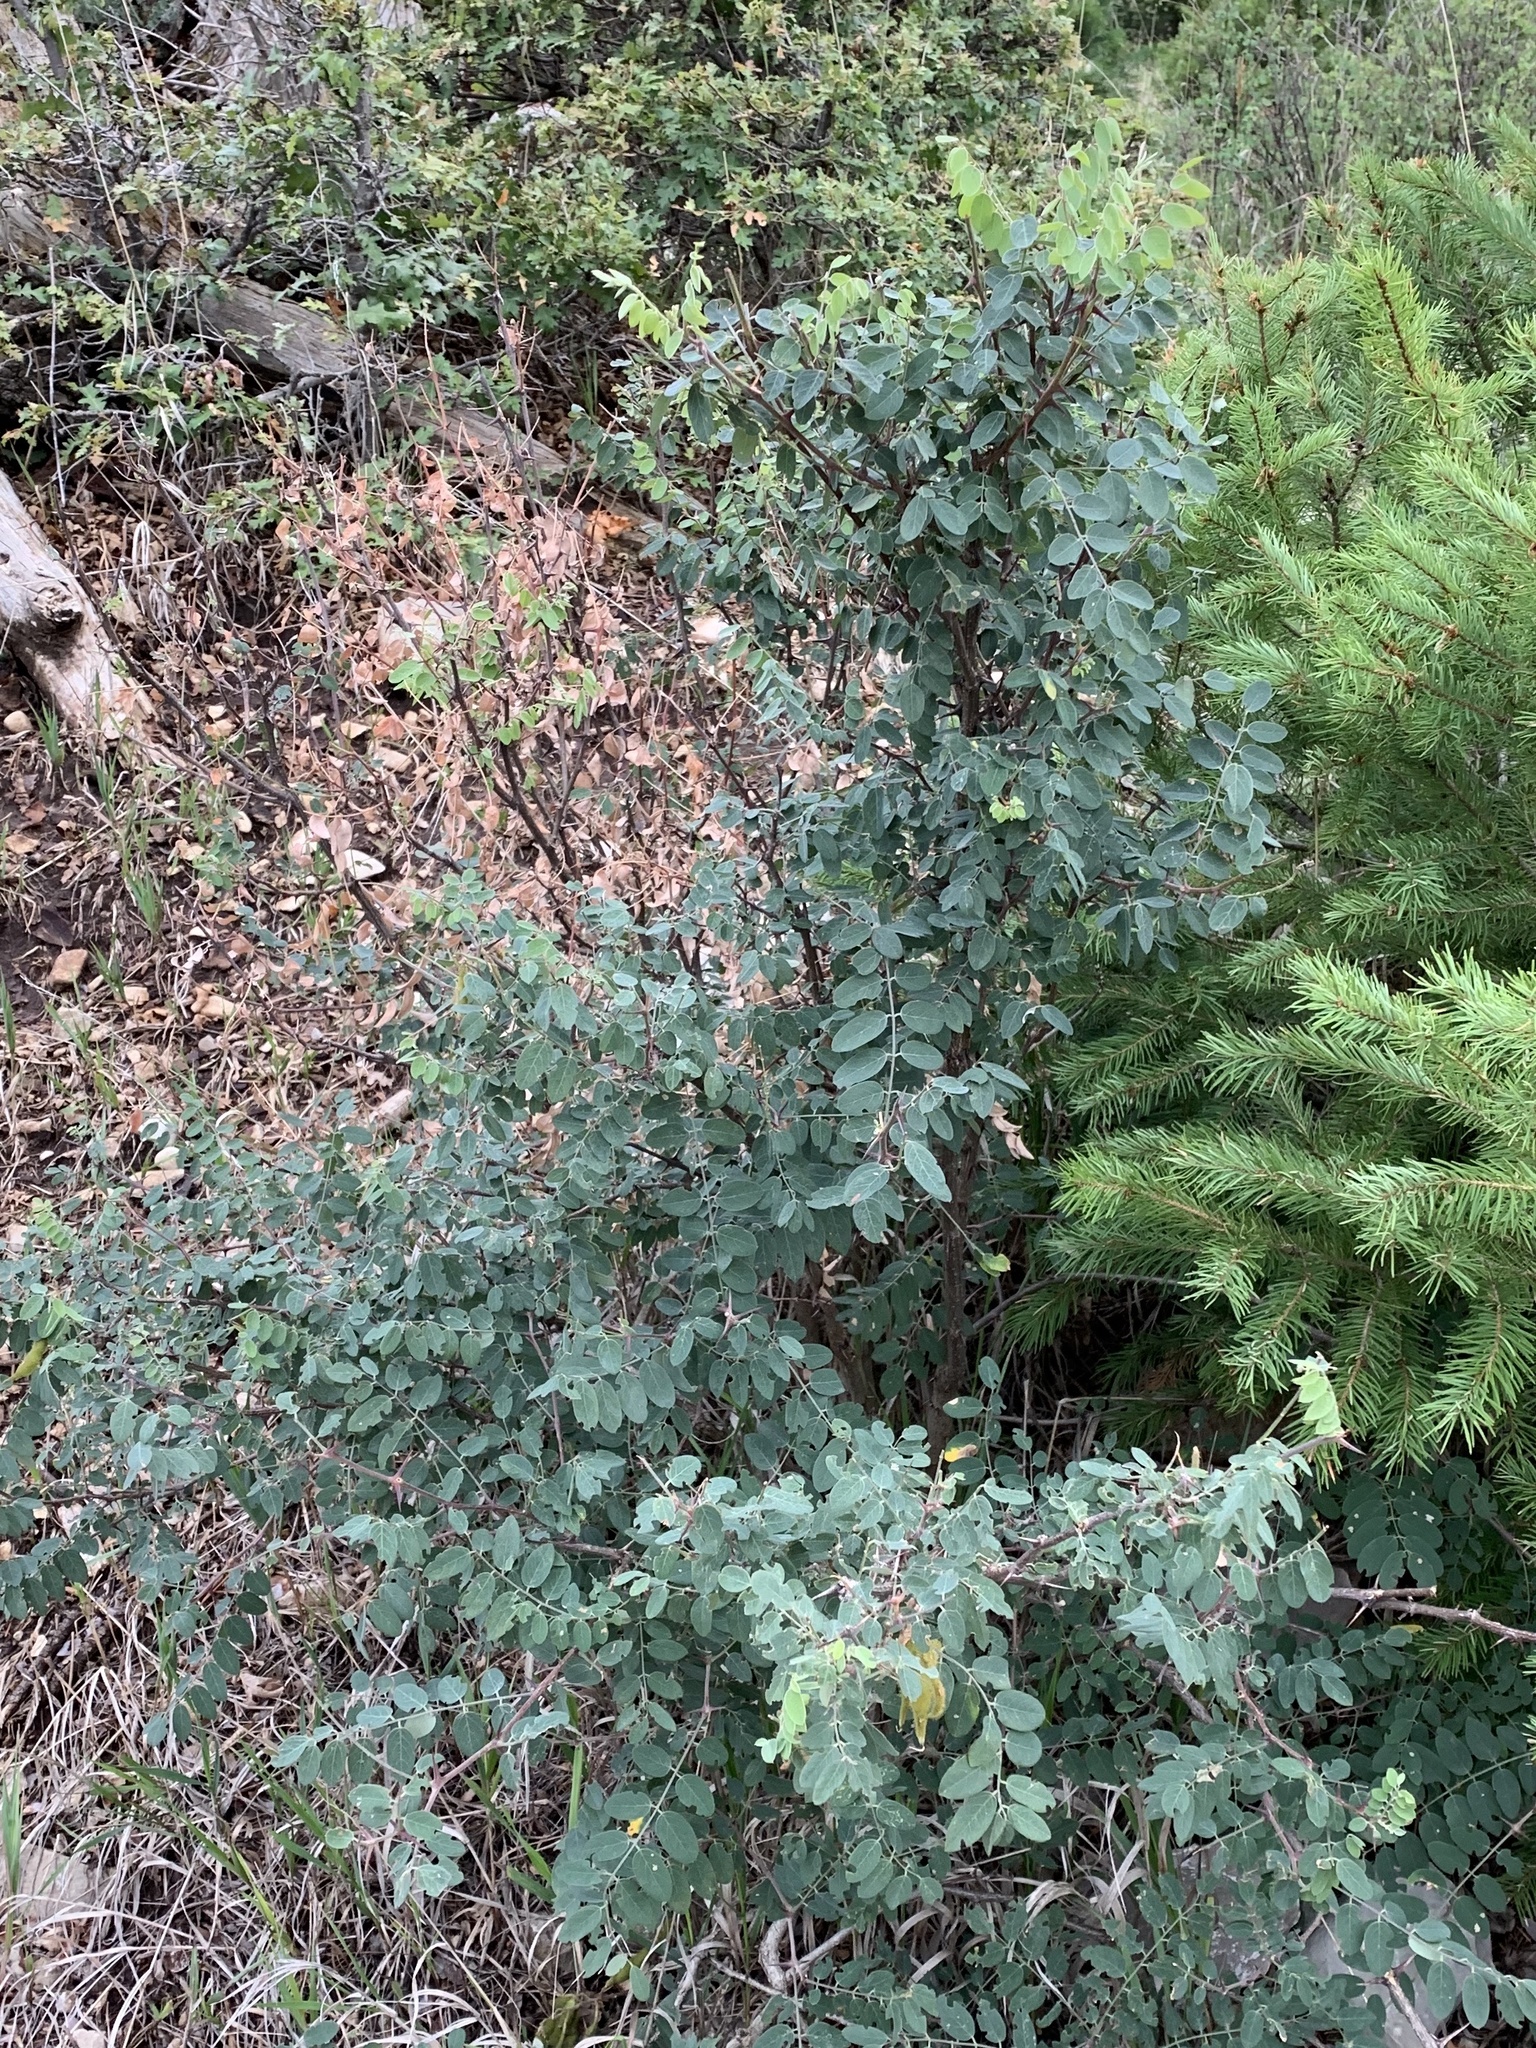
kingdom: Plantae
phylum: Tracheophyta
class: Magnoliopsida
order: Fabales
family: Fabaceae
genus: Robinia
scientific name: Robinia neomexicana
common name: New mexico locust
